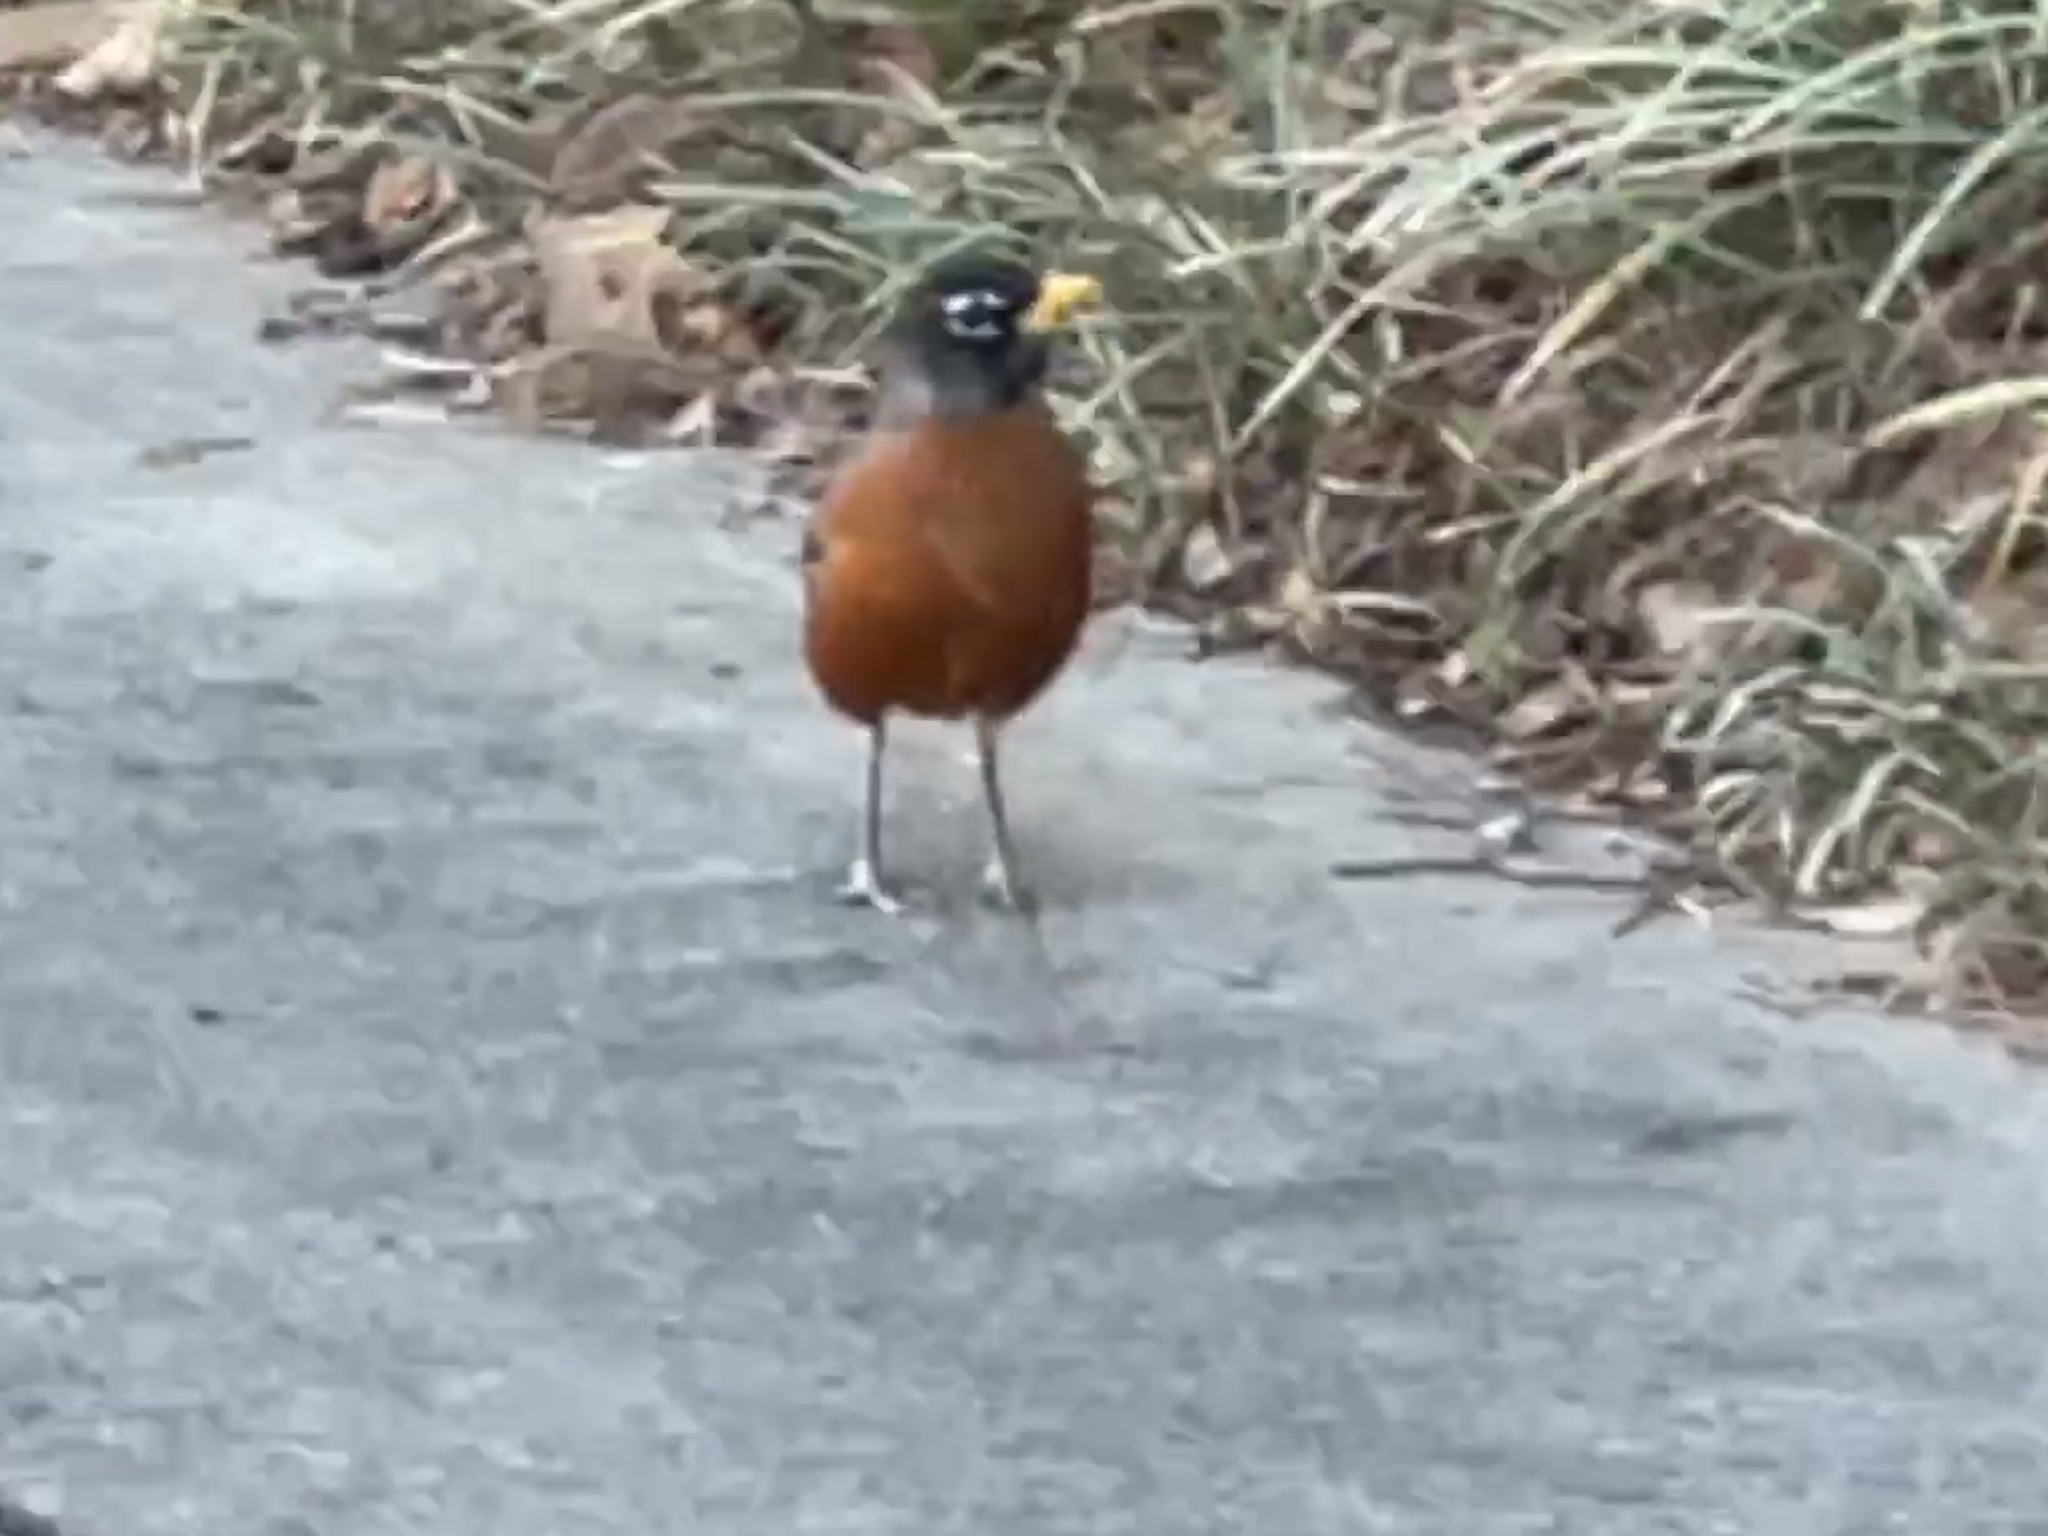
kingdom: Animalia
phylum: Chordata
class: Aves
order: Passeriformes
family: Turdidae
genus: Turdus
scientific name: Turdus migratorius
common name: American robin
